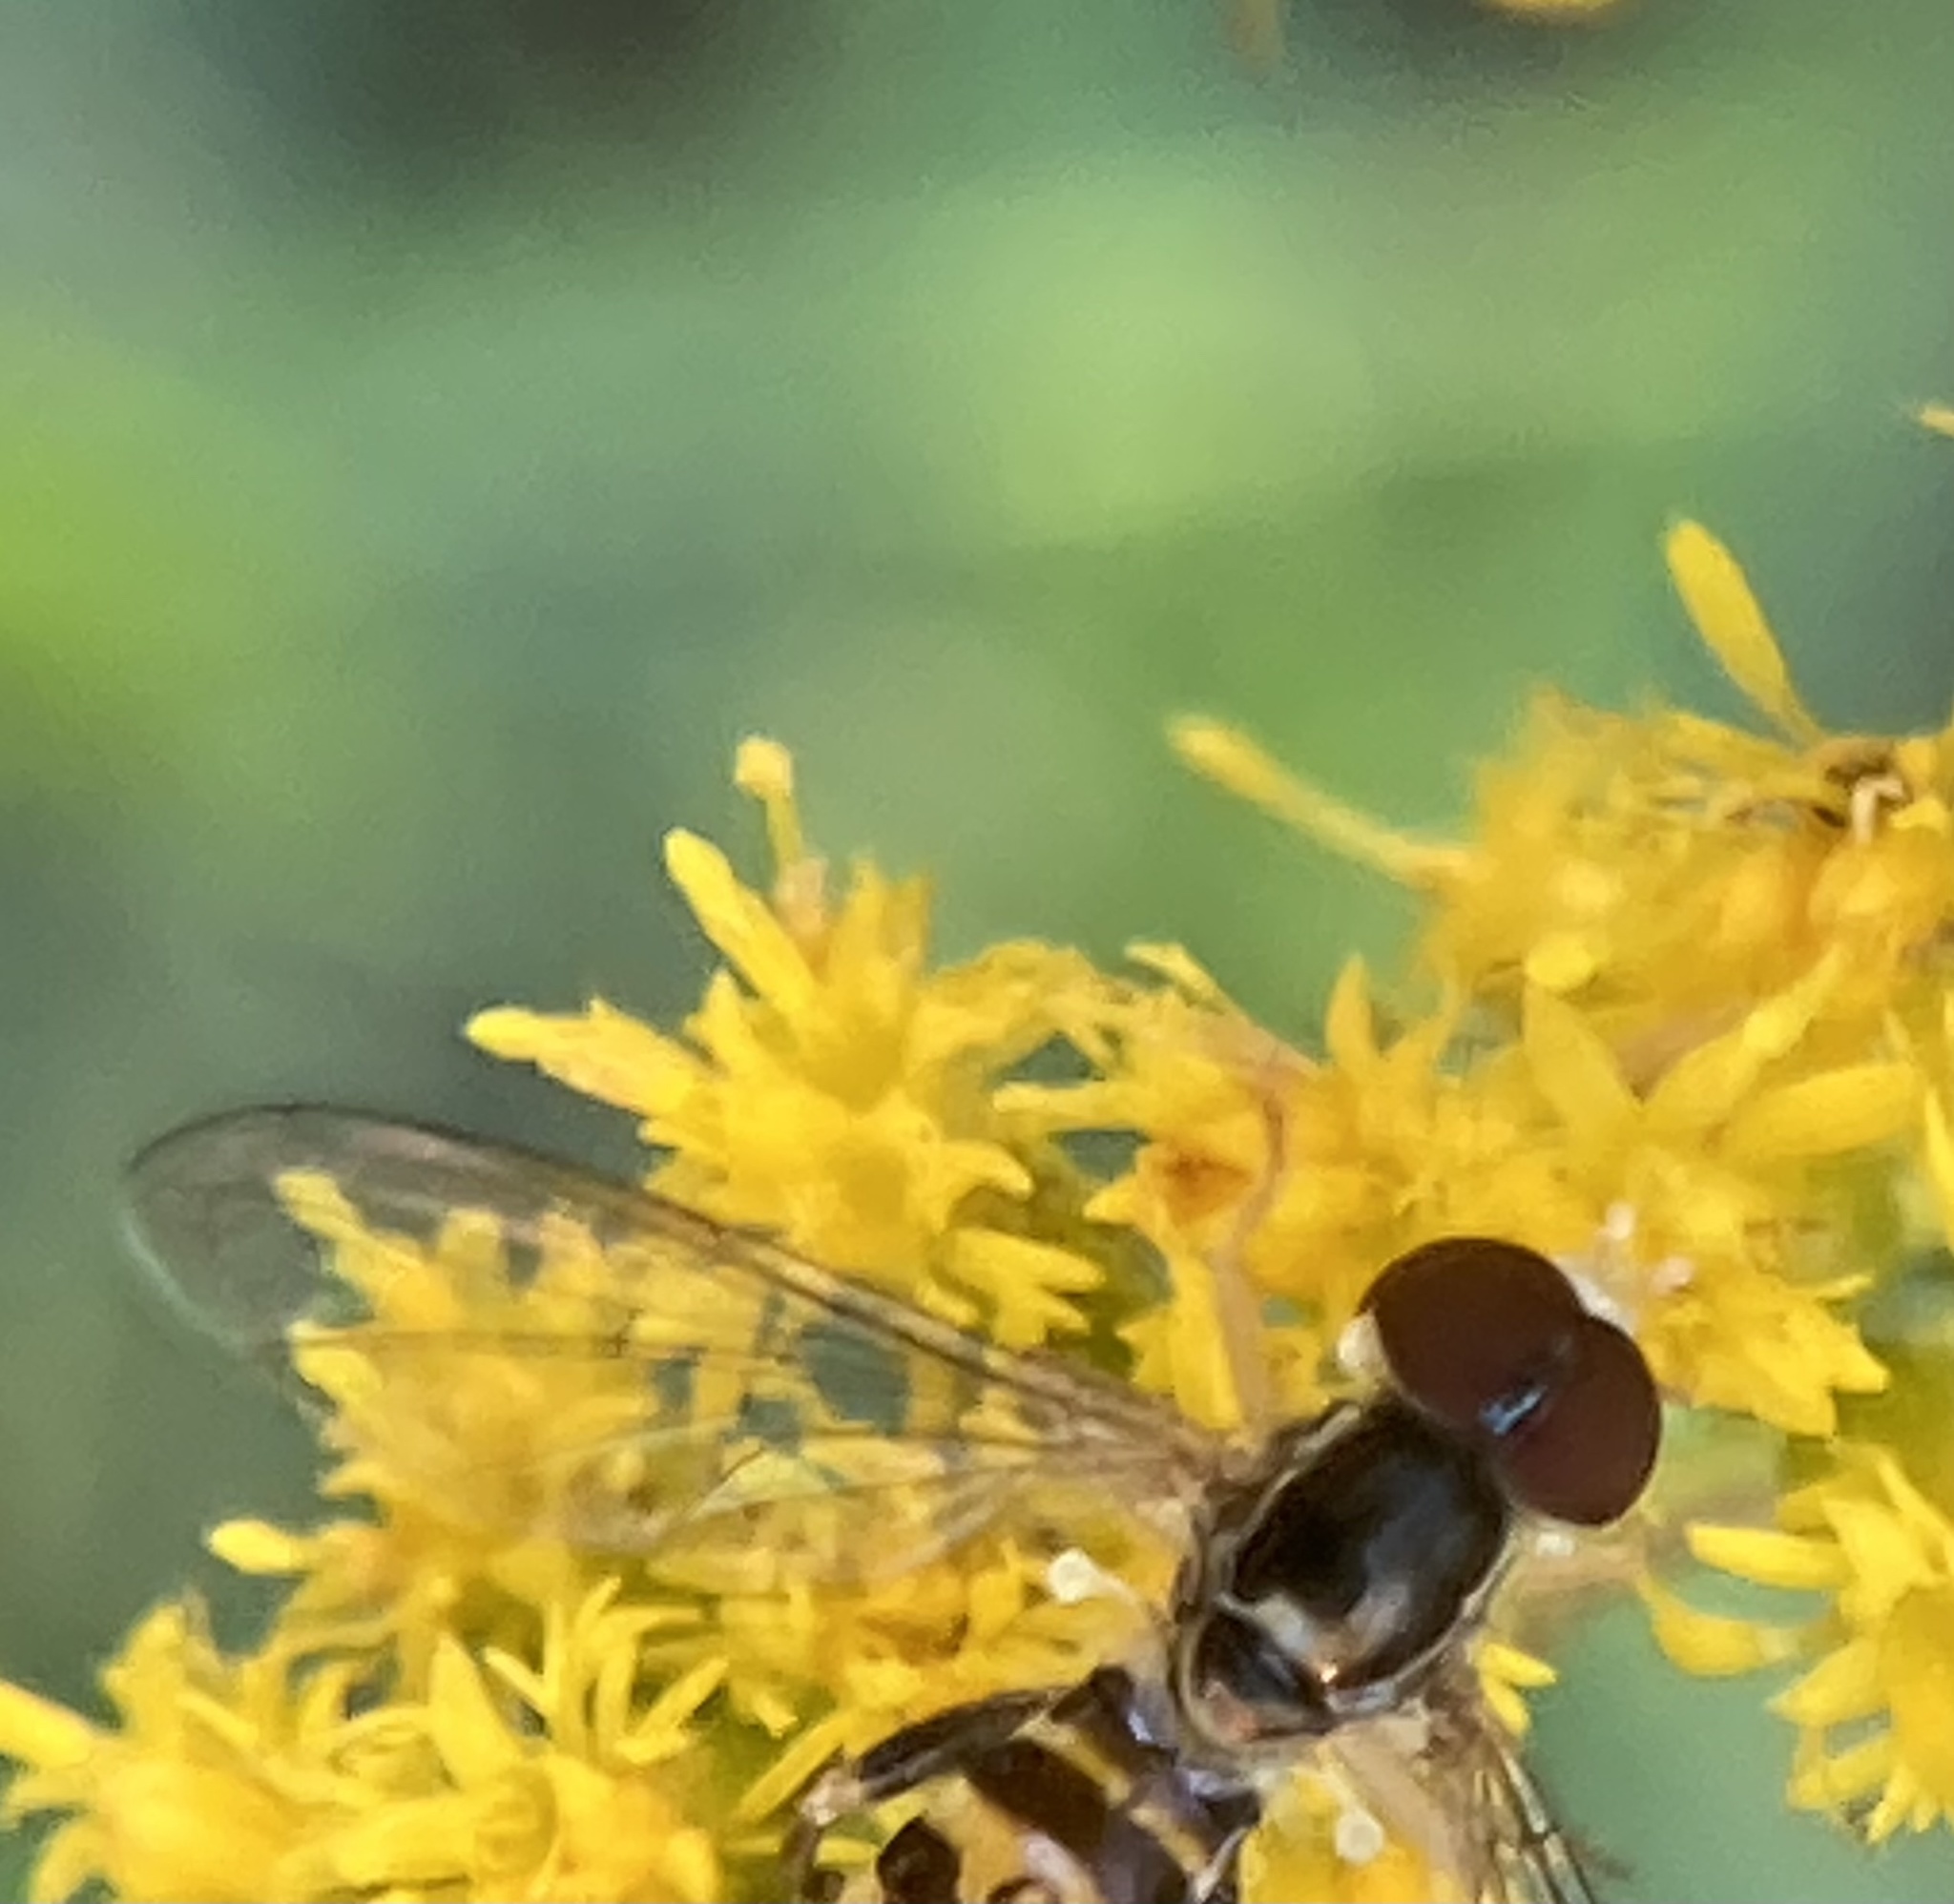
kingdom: Animalia
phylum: Arthropoda
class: Insecta
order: Diptera
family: Syrphidae
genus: Toxomerus
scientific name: Toxomerus geminatus
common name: Eastern calligrapher
